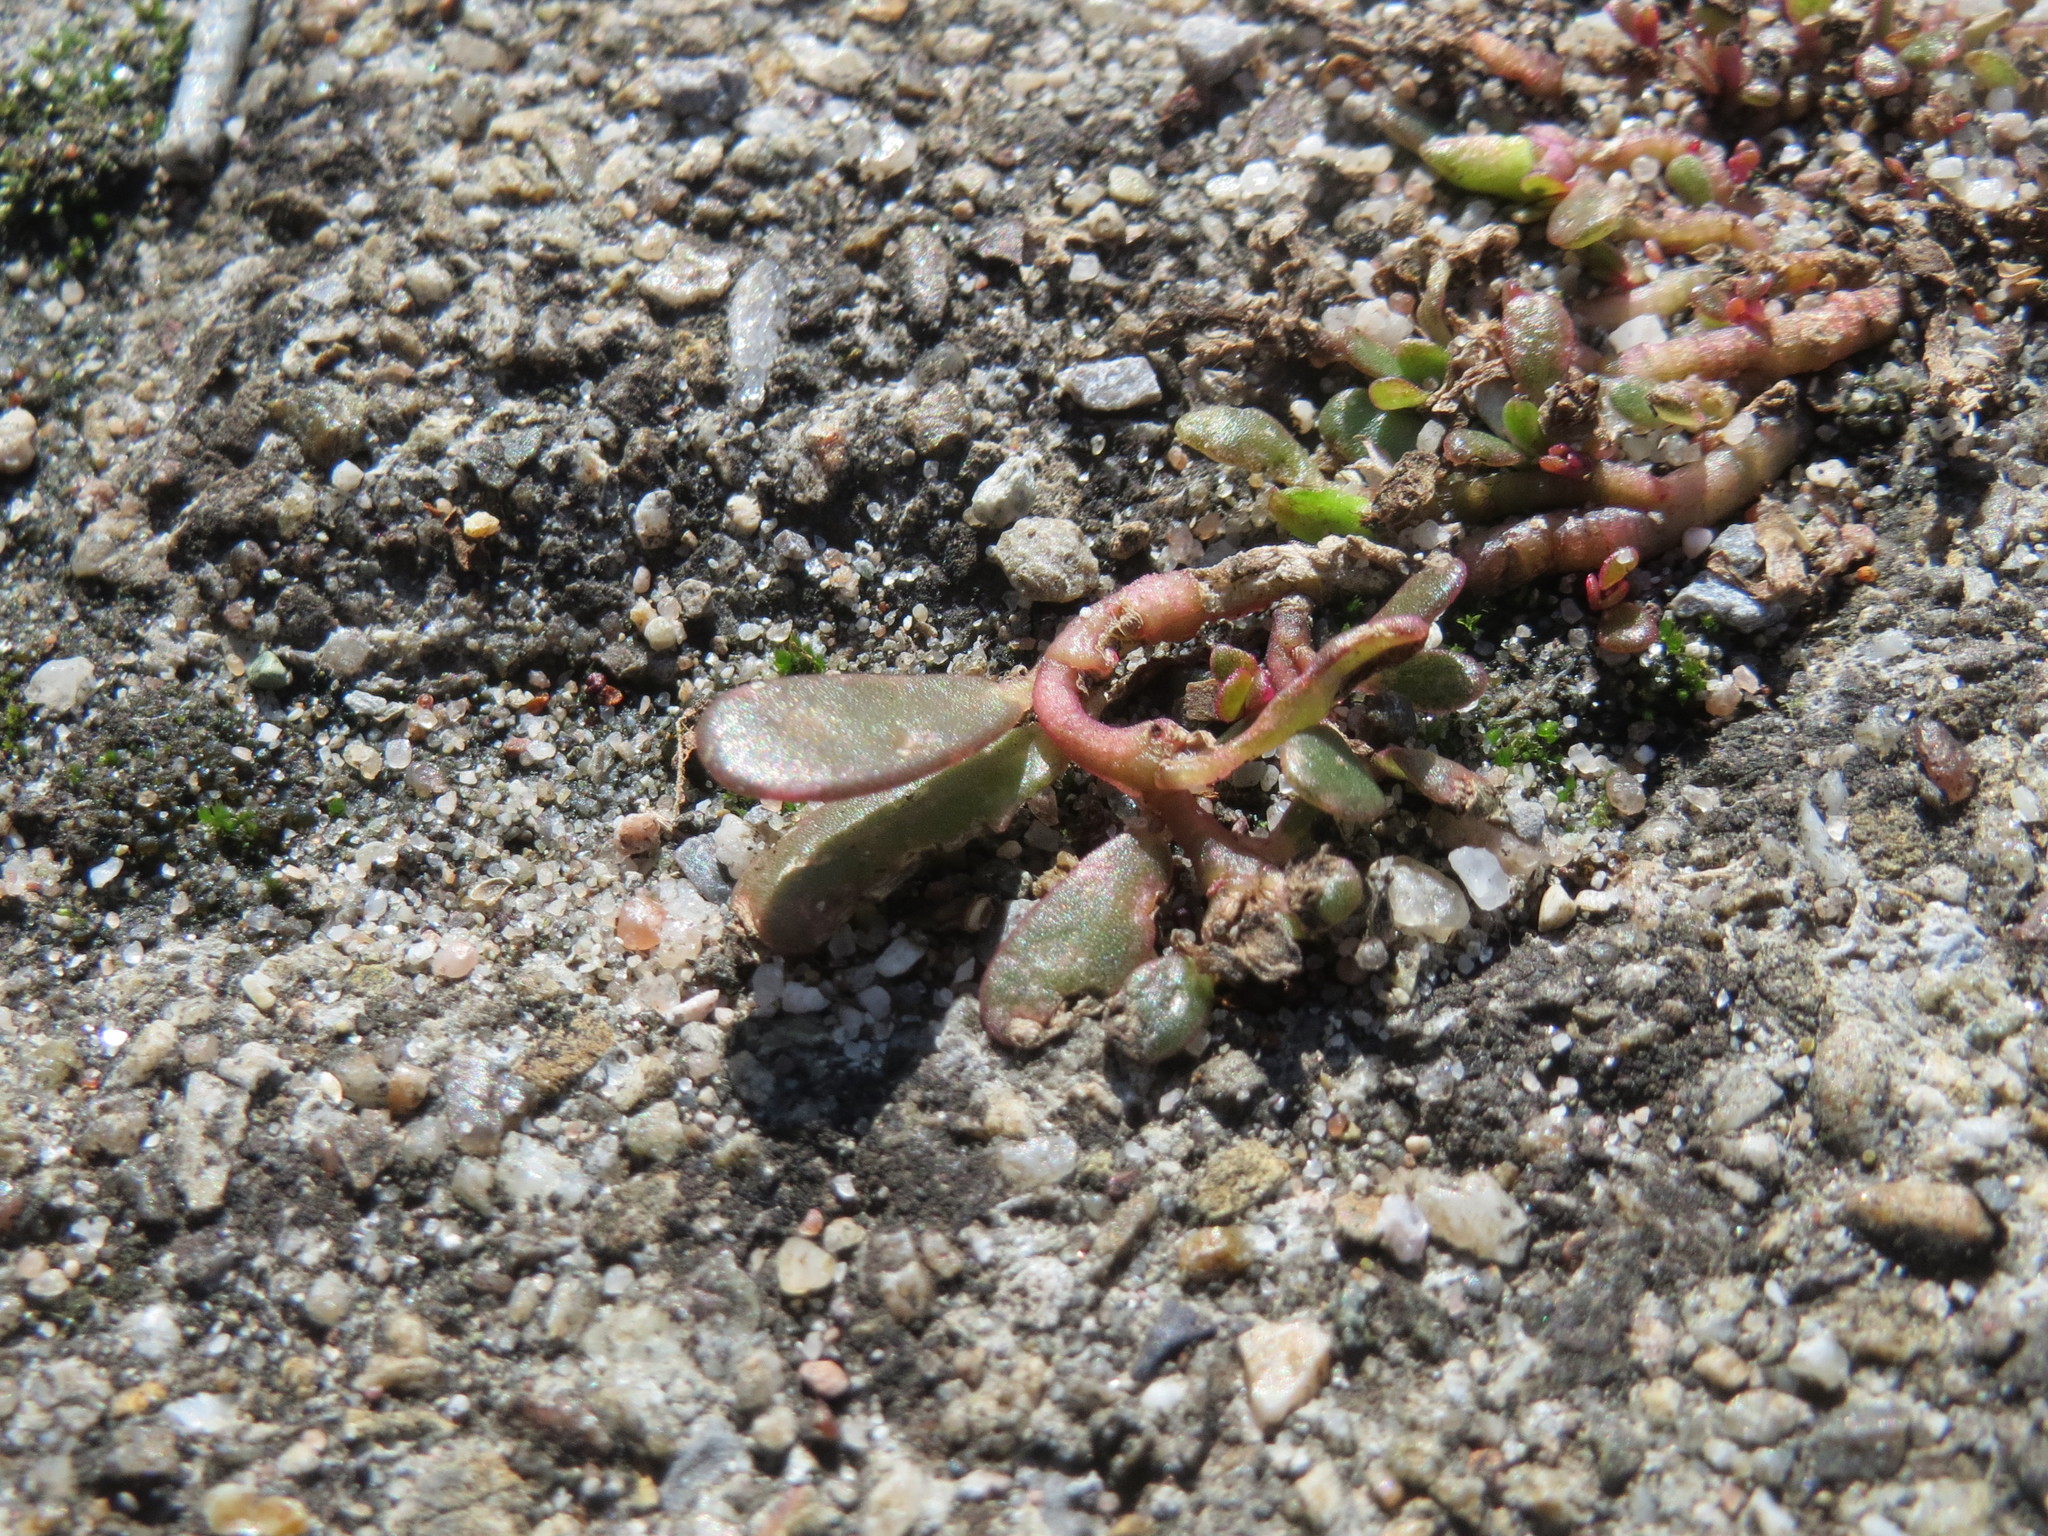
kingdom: Plantae
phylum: Tracheophyta
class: Magnoliopsida
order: Caryophyllales
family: Portulacaceae
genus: Portulaca
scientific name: Portulaca oleracea
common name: Common purslane
